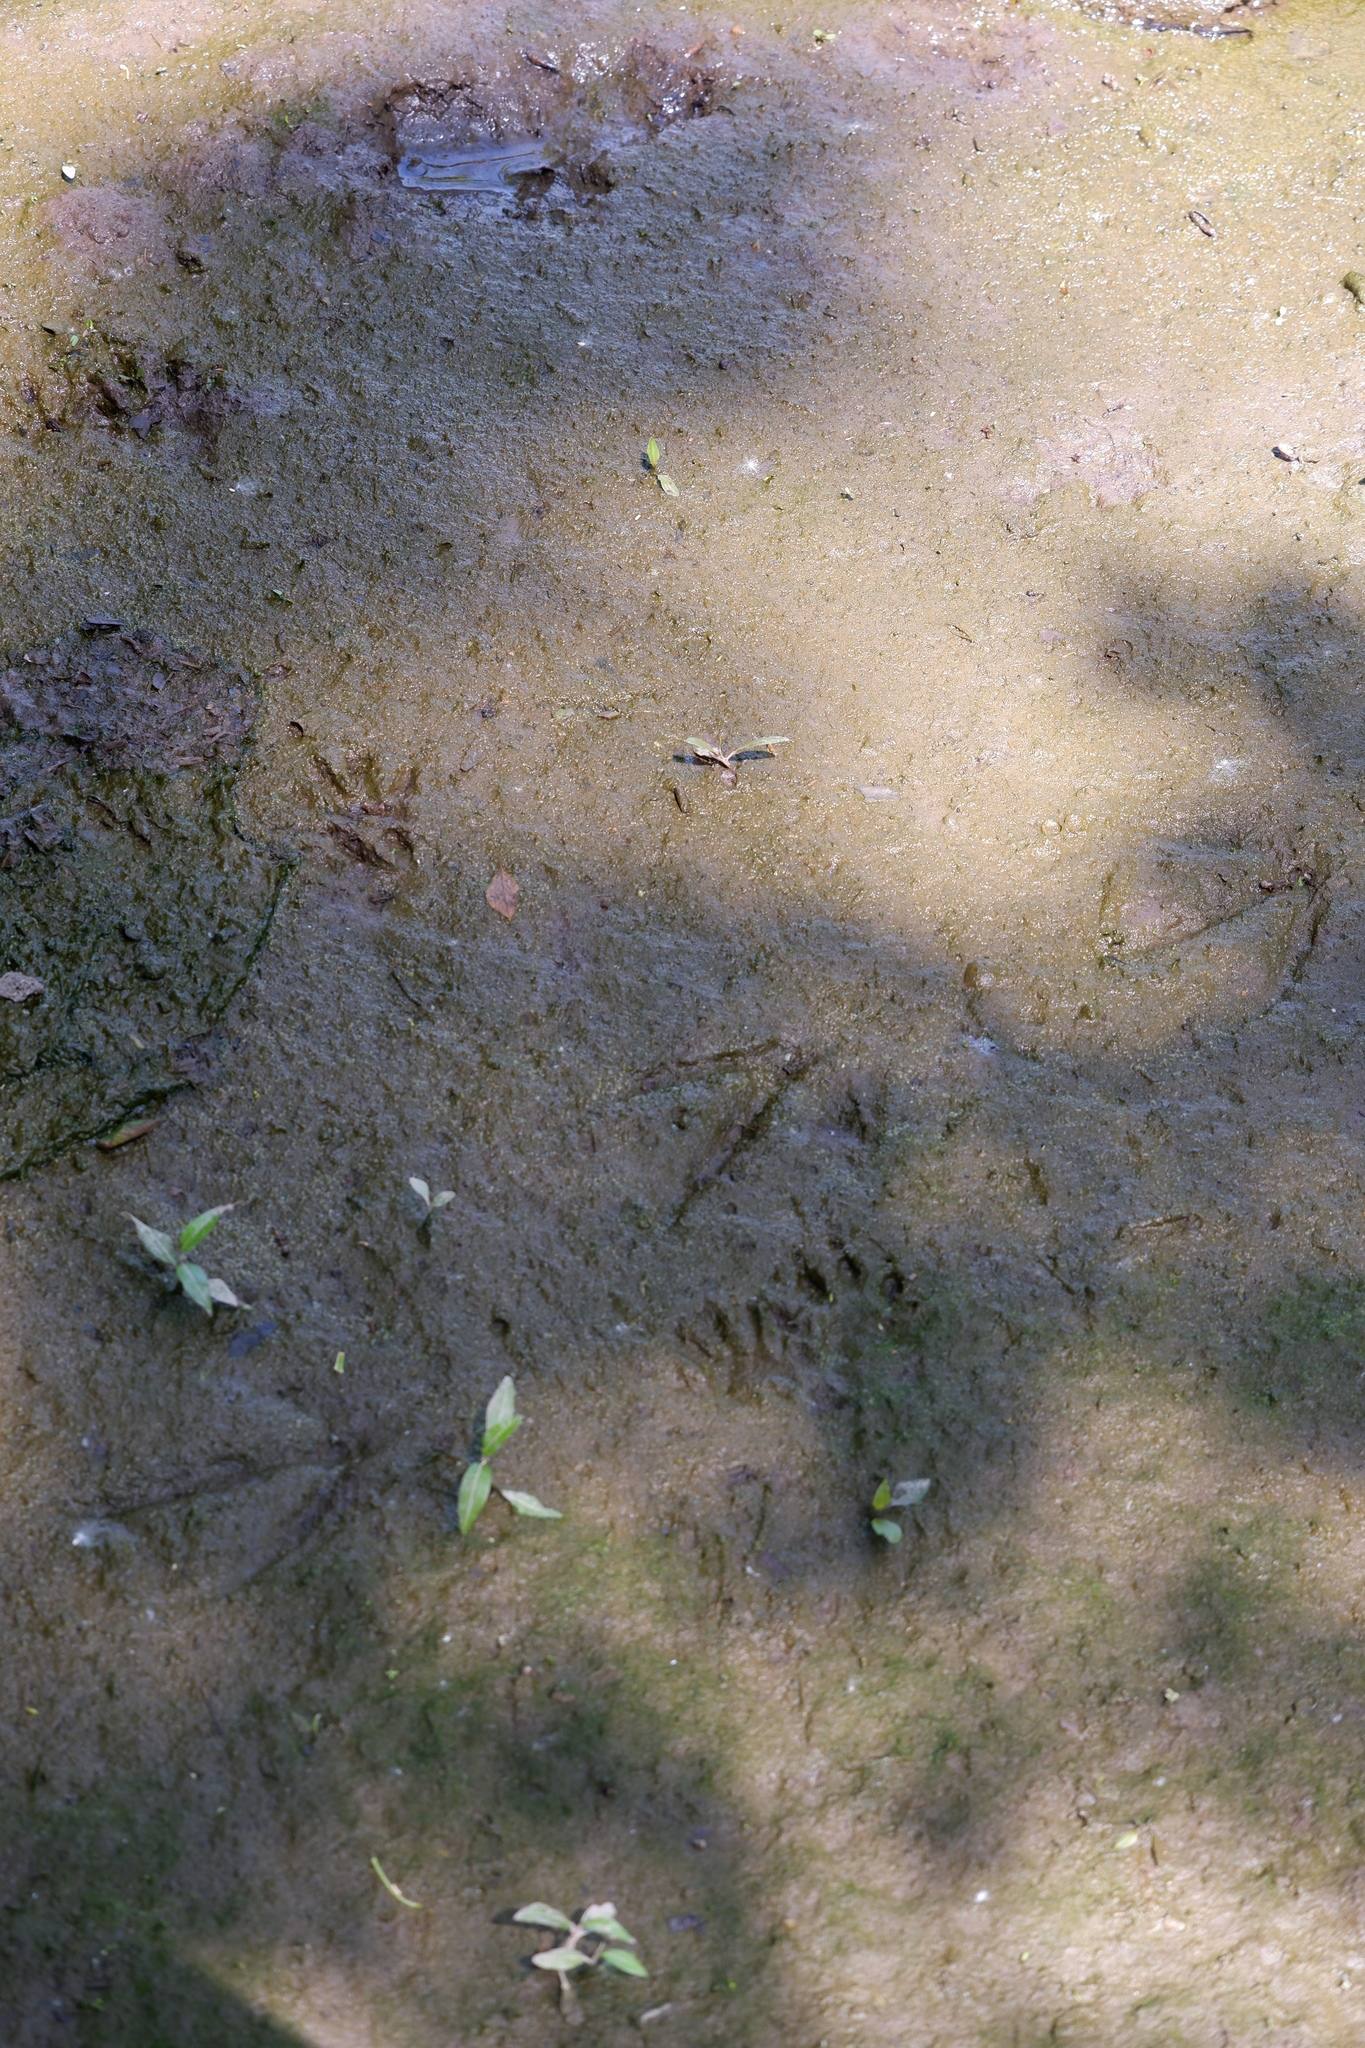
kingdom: Animalia
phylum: Chordata
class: Mammalia
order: Carnivora
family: Procyonidae
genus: Procyon
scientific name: Procyon lotor
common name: Raccoon
